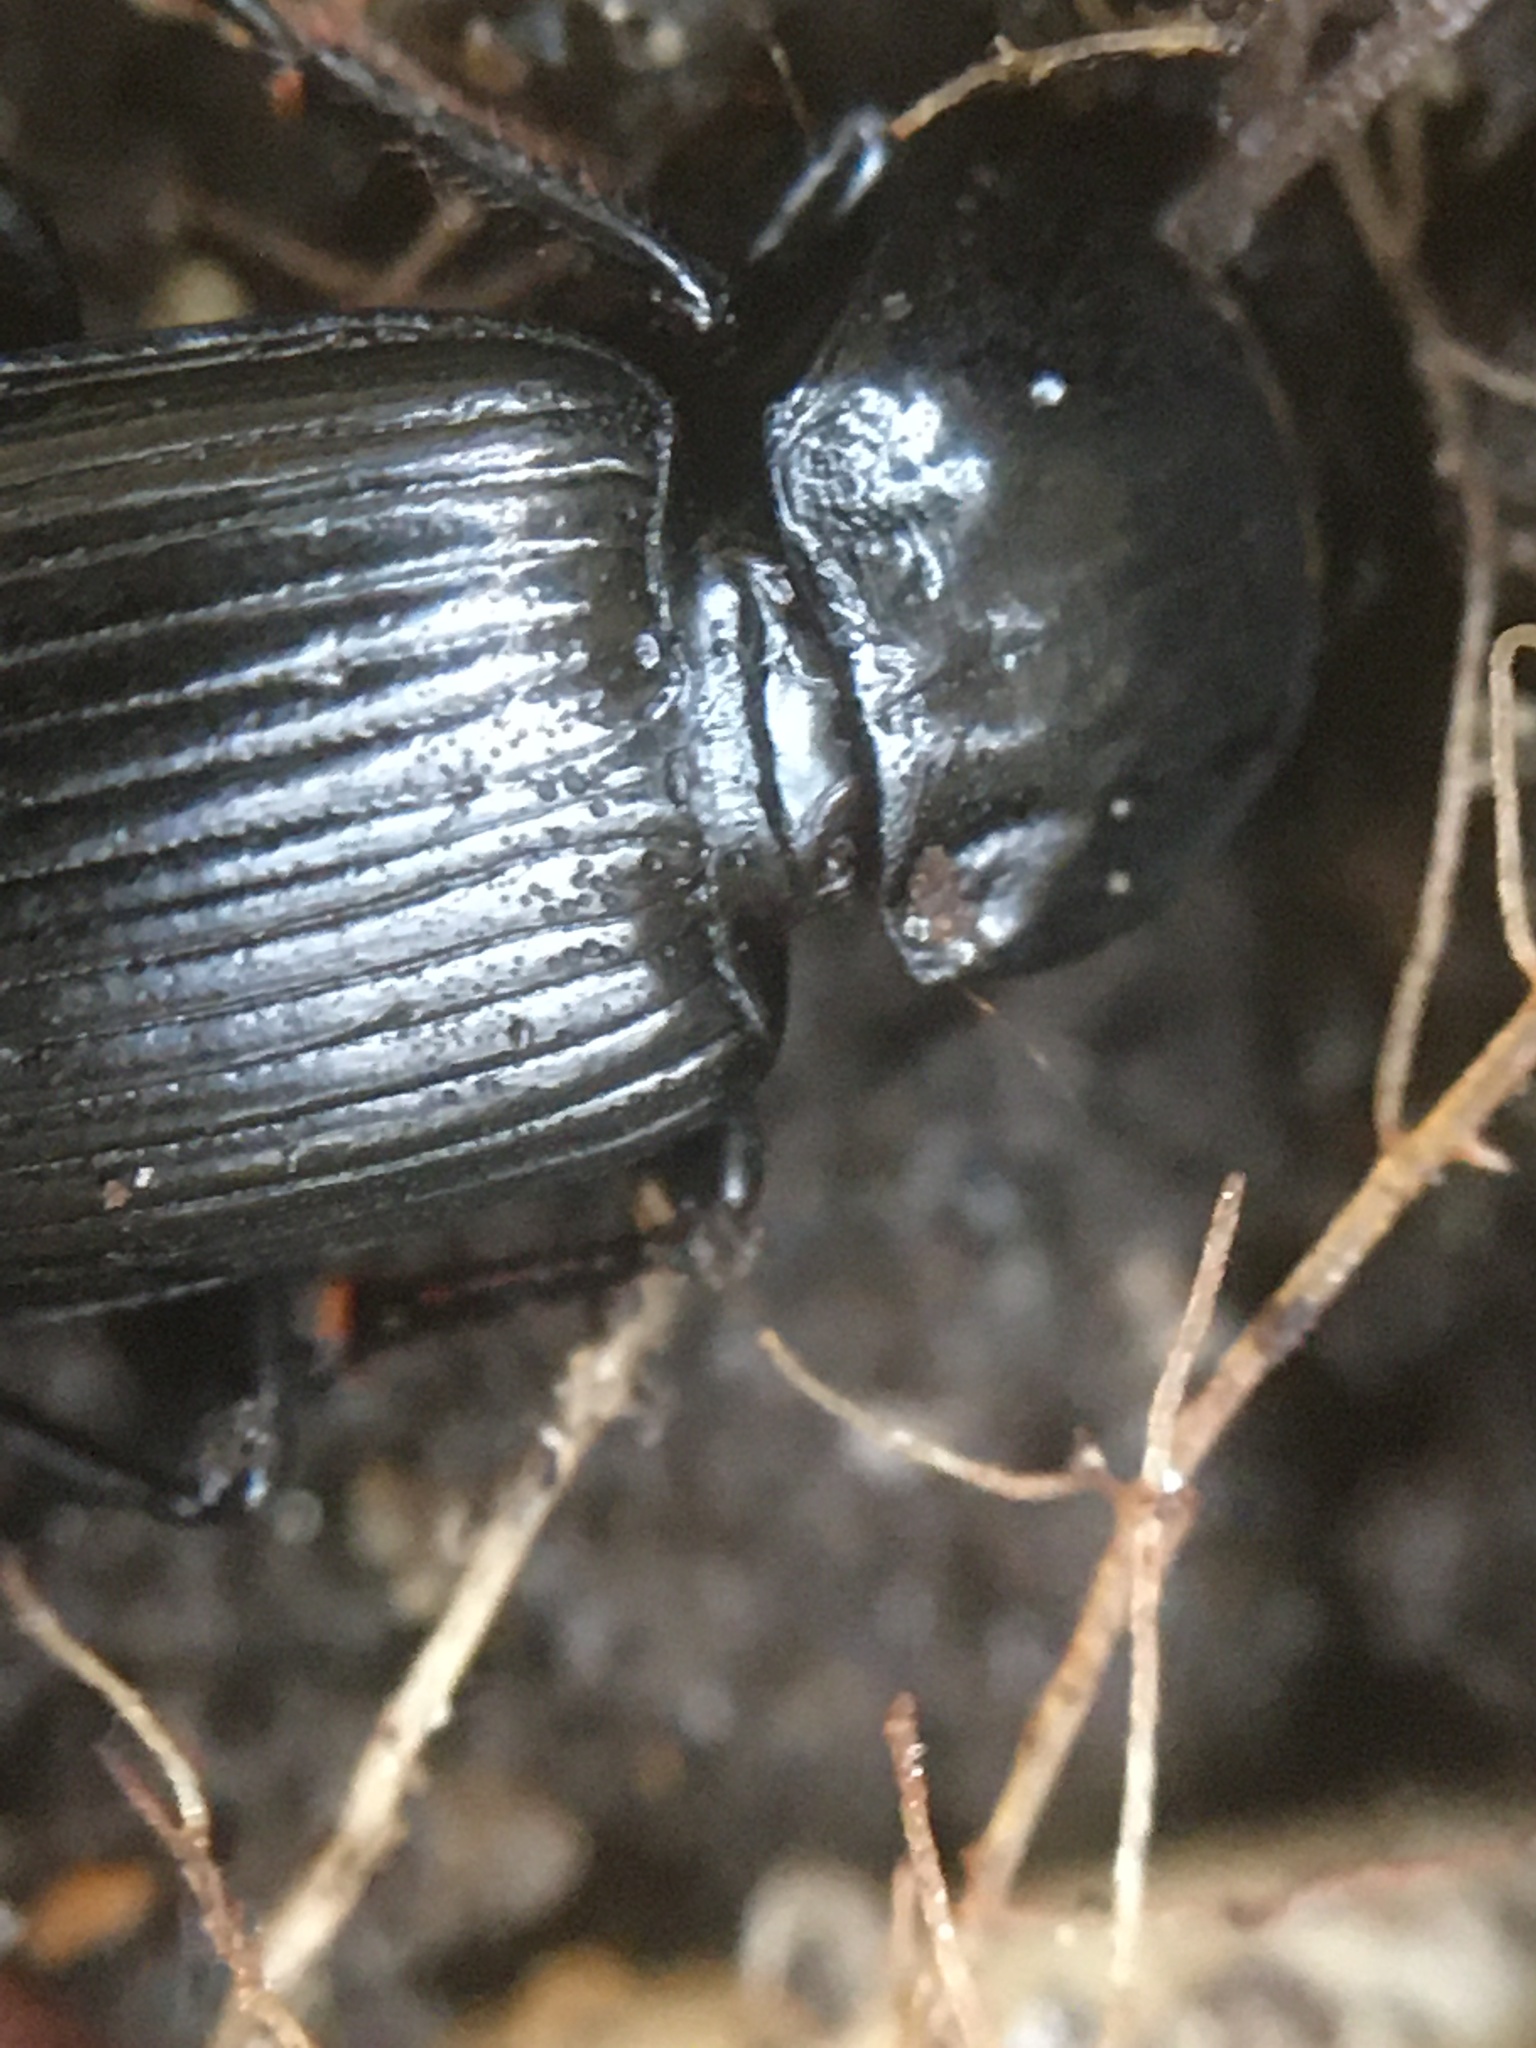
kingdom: Animalia
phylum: Arthropoda
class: Insecta
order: Coleoptera
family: Carabidae
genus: Pterostichus
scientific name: Pterostichus
